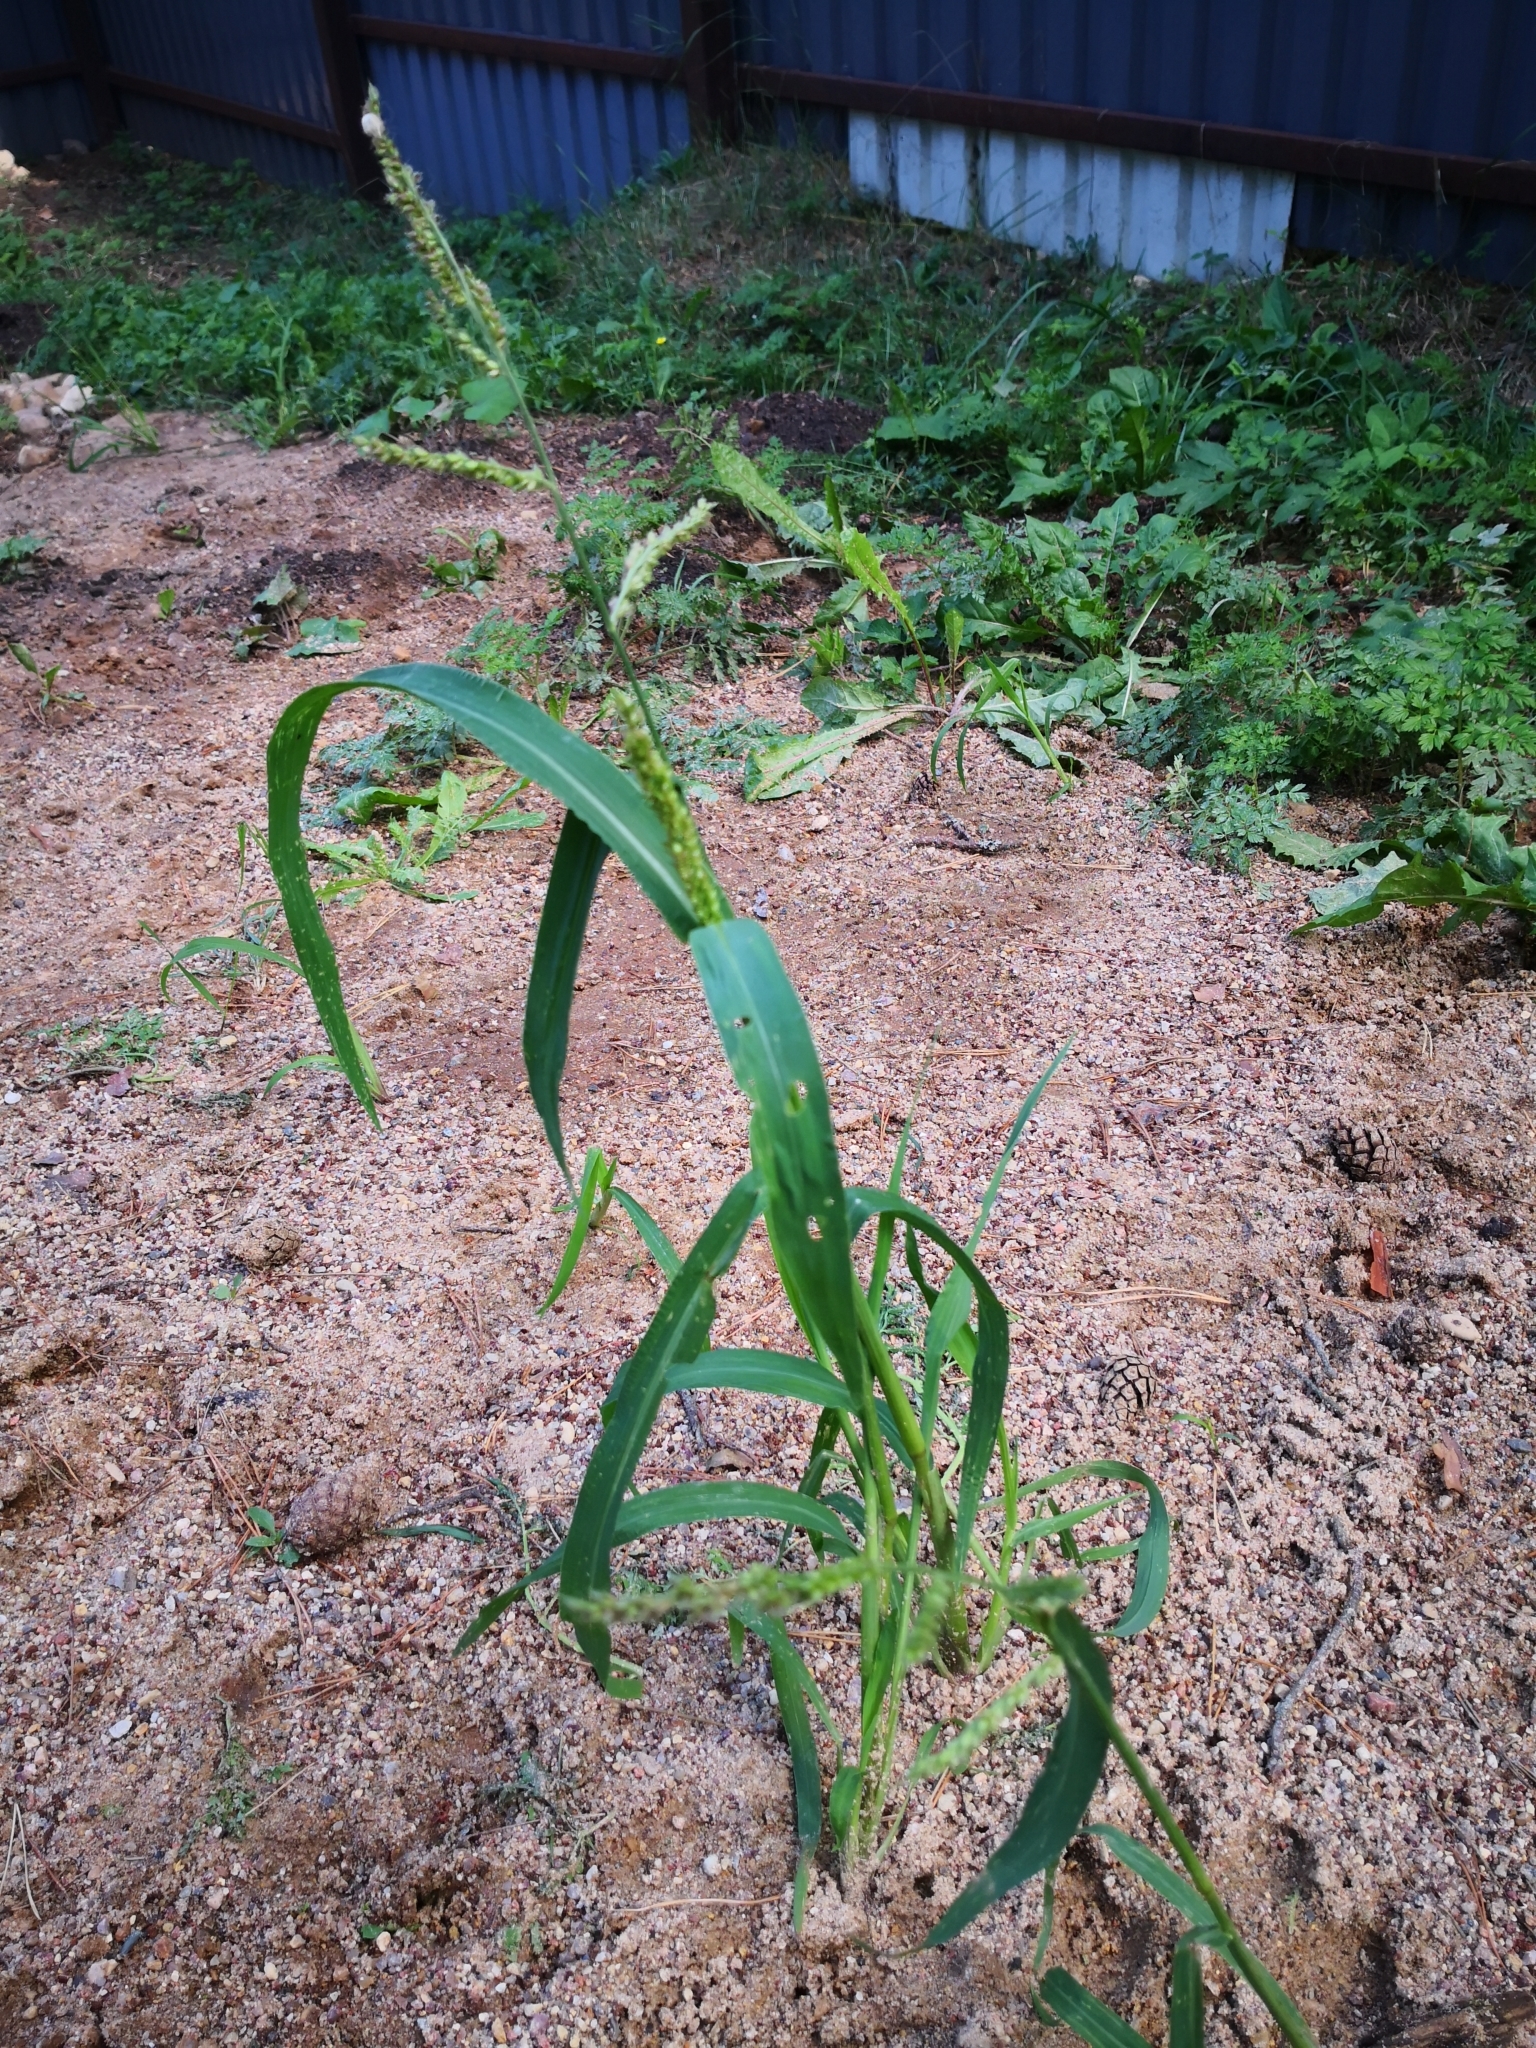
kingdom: Plantae
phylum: Tracheophyta
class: Liliopsida
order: Poales
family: Poaceae
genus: Echinochloa
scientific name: Echinochloa crus-galli
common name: Cockspur
